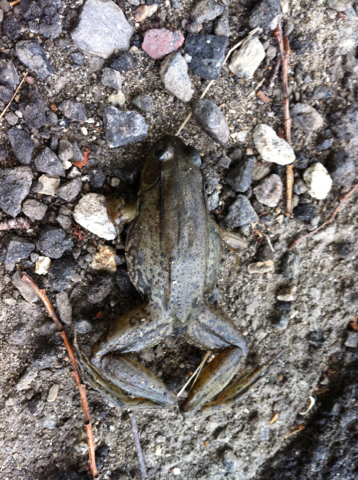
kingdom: Animalia
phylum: Chordata
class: Amphibia
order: Anura
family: Ranidae
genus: Lithobates
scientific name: Lithobates clamitans
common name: Green frog
